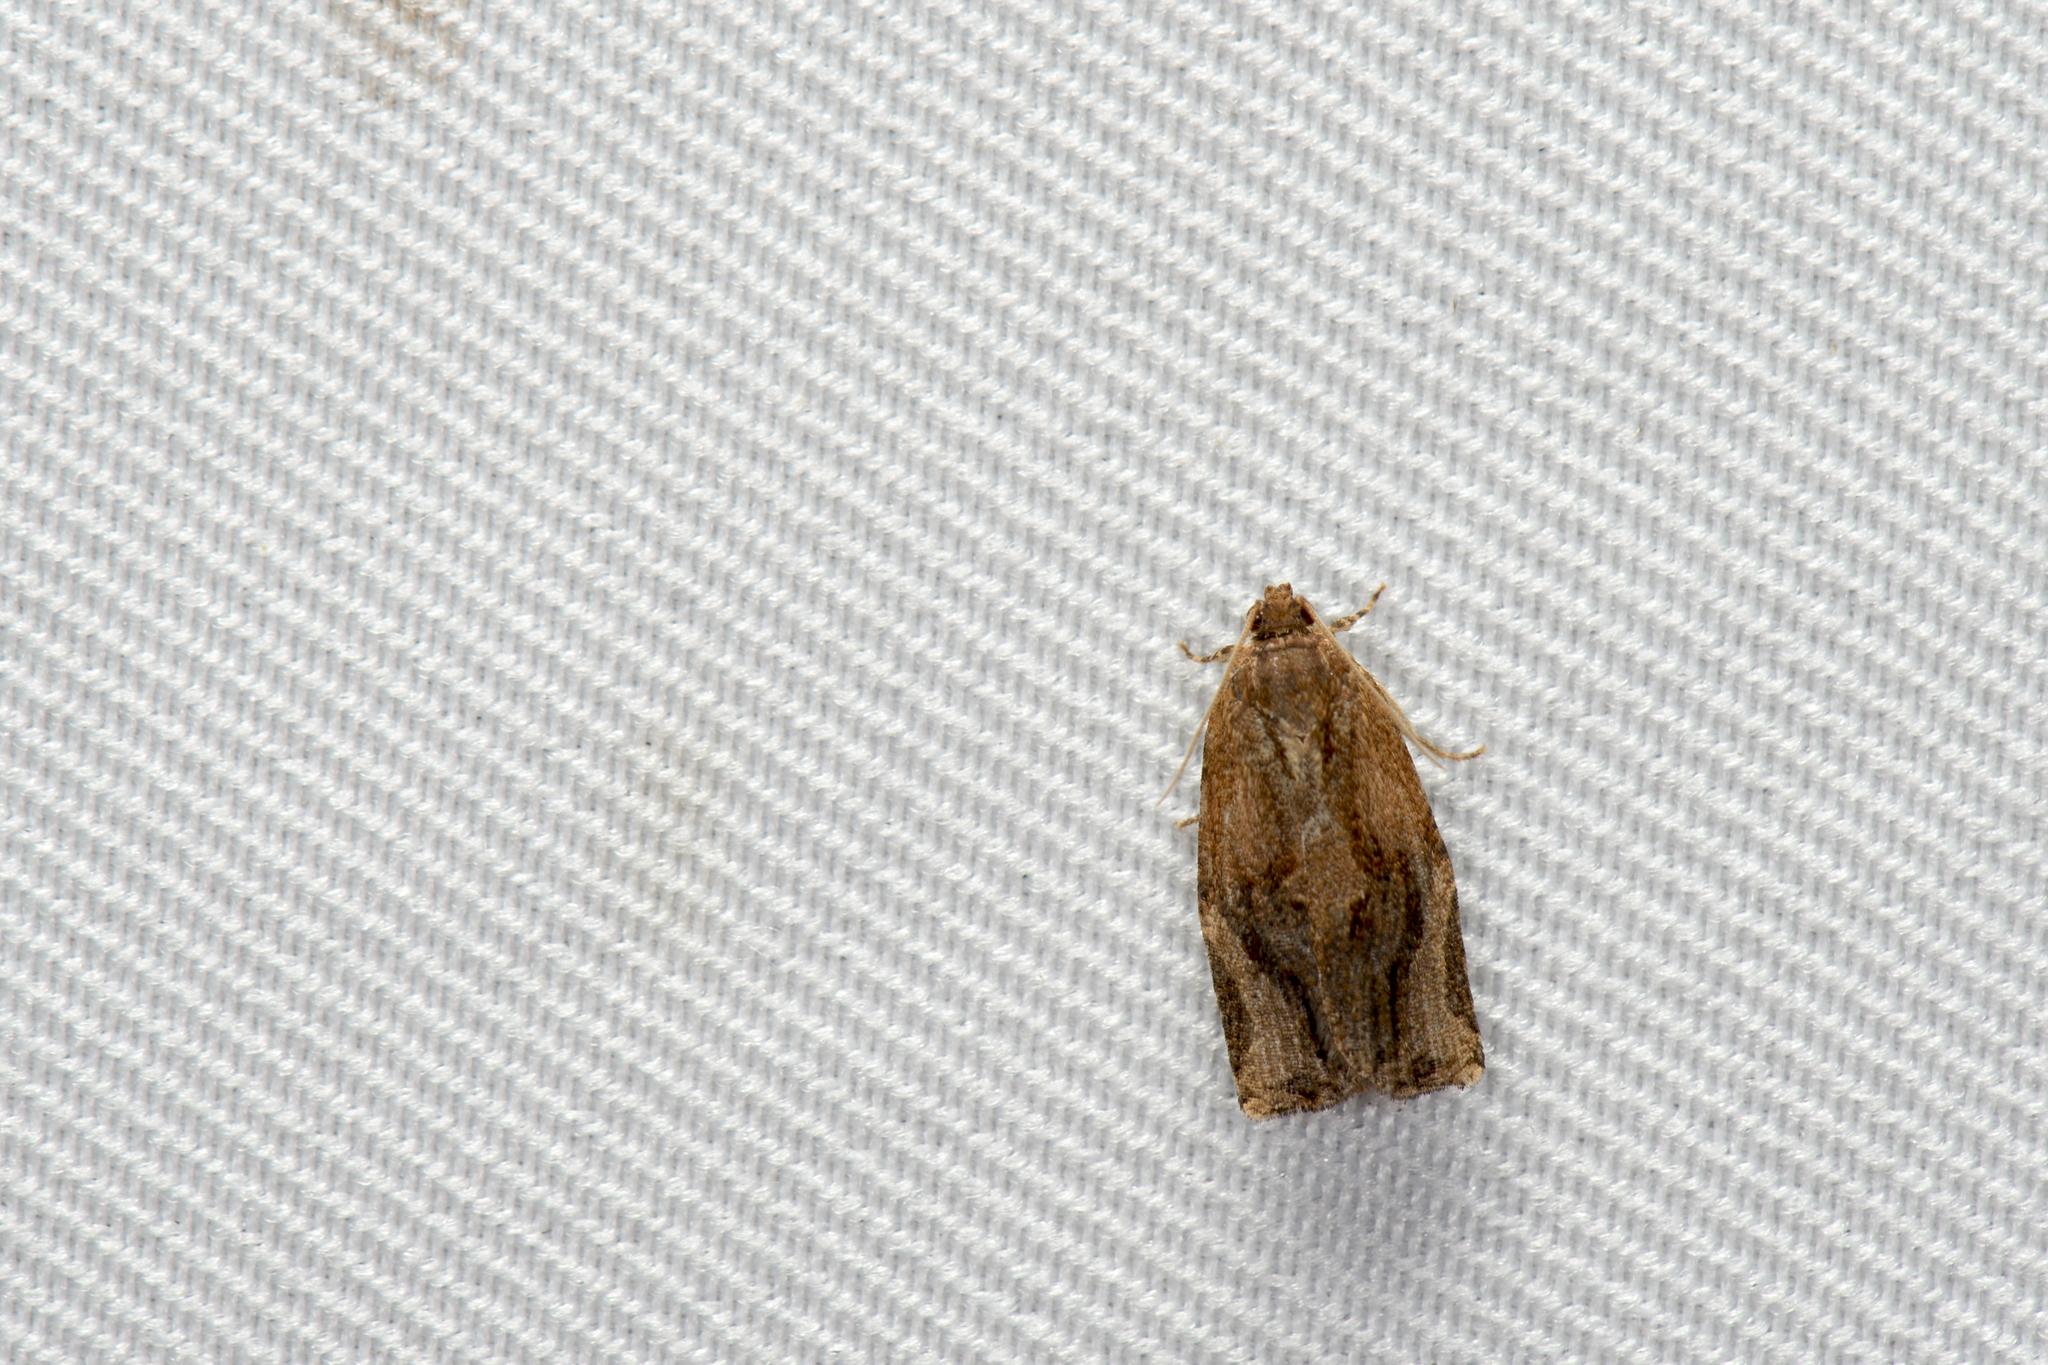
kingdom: Animalia
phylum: Arthropoda
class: Insecta
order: Lepidoptera
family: Tortricidae
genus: Isodemis
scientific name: Isodemis proxima
